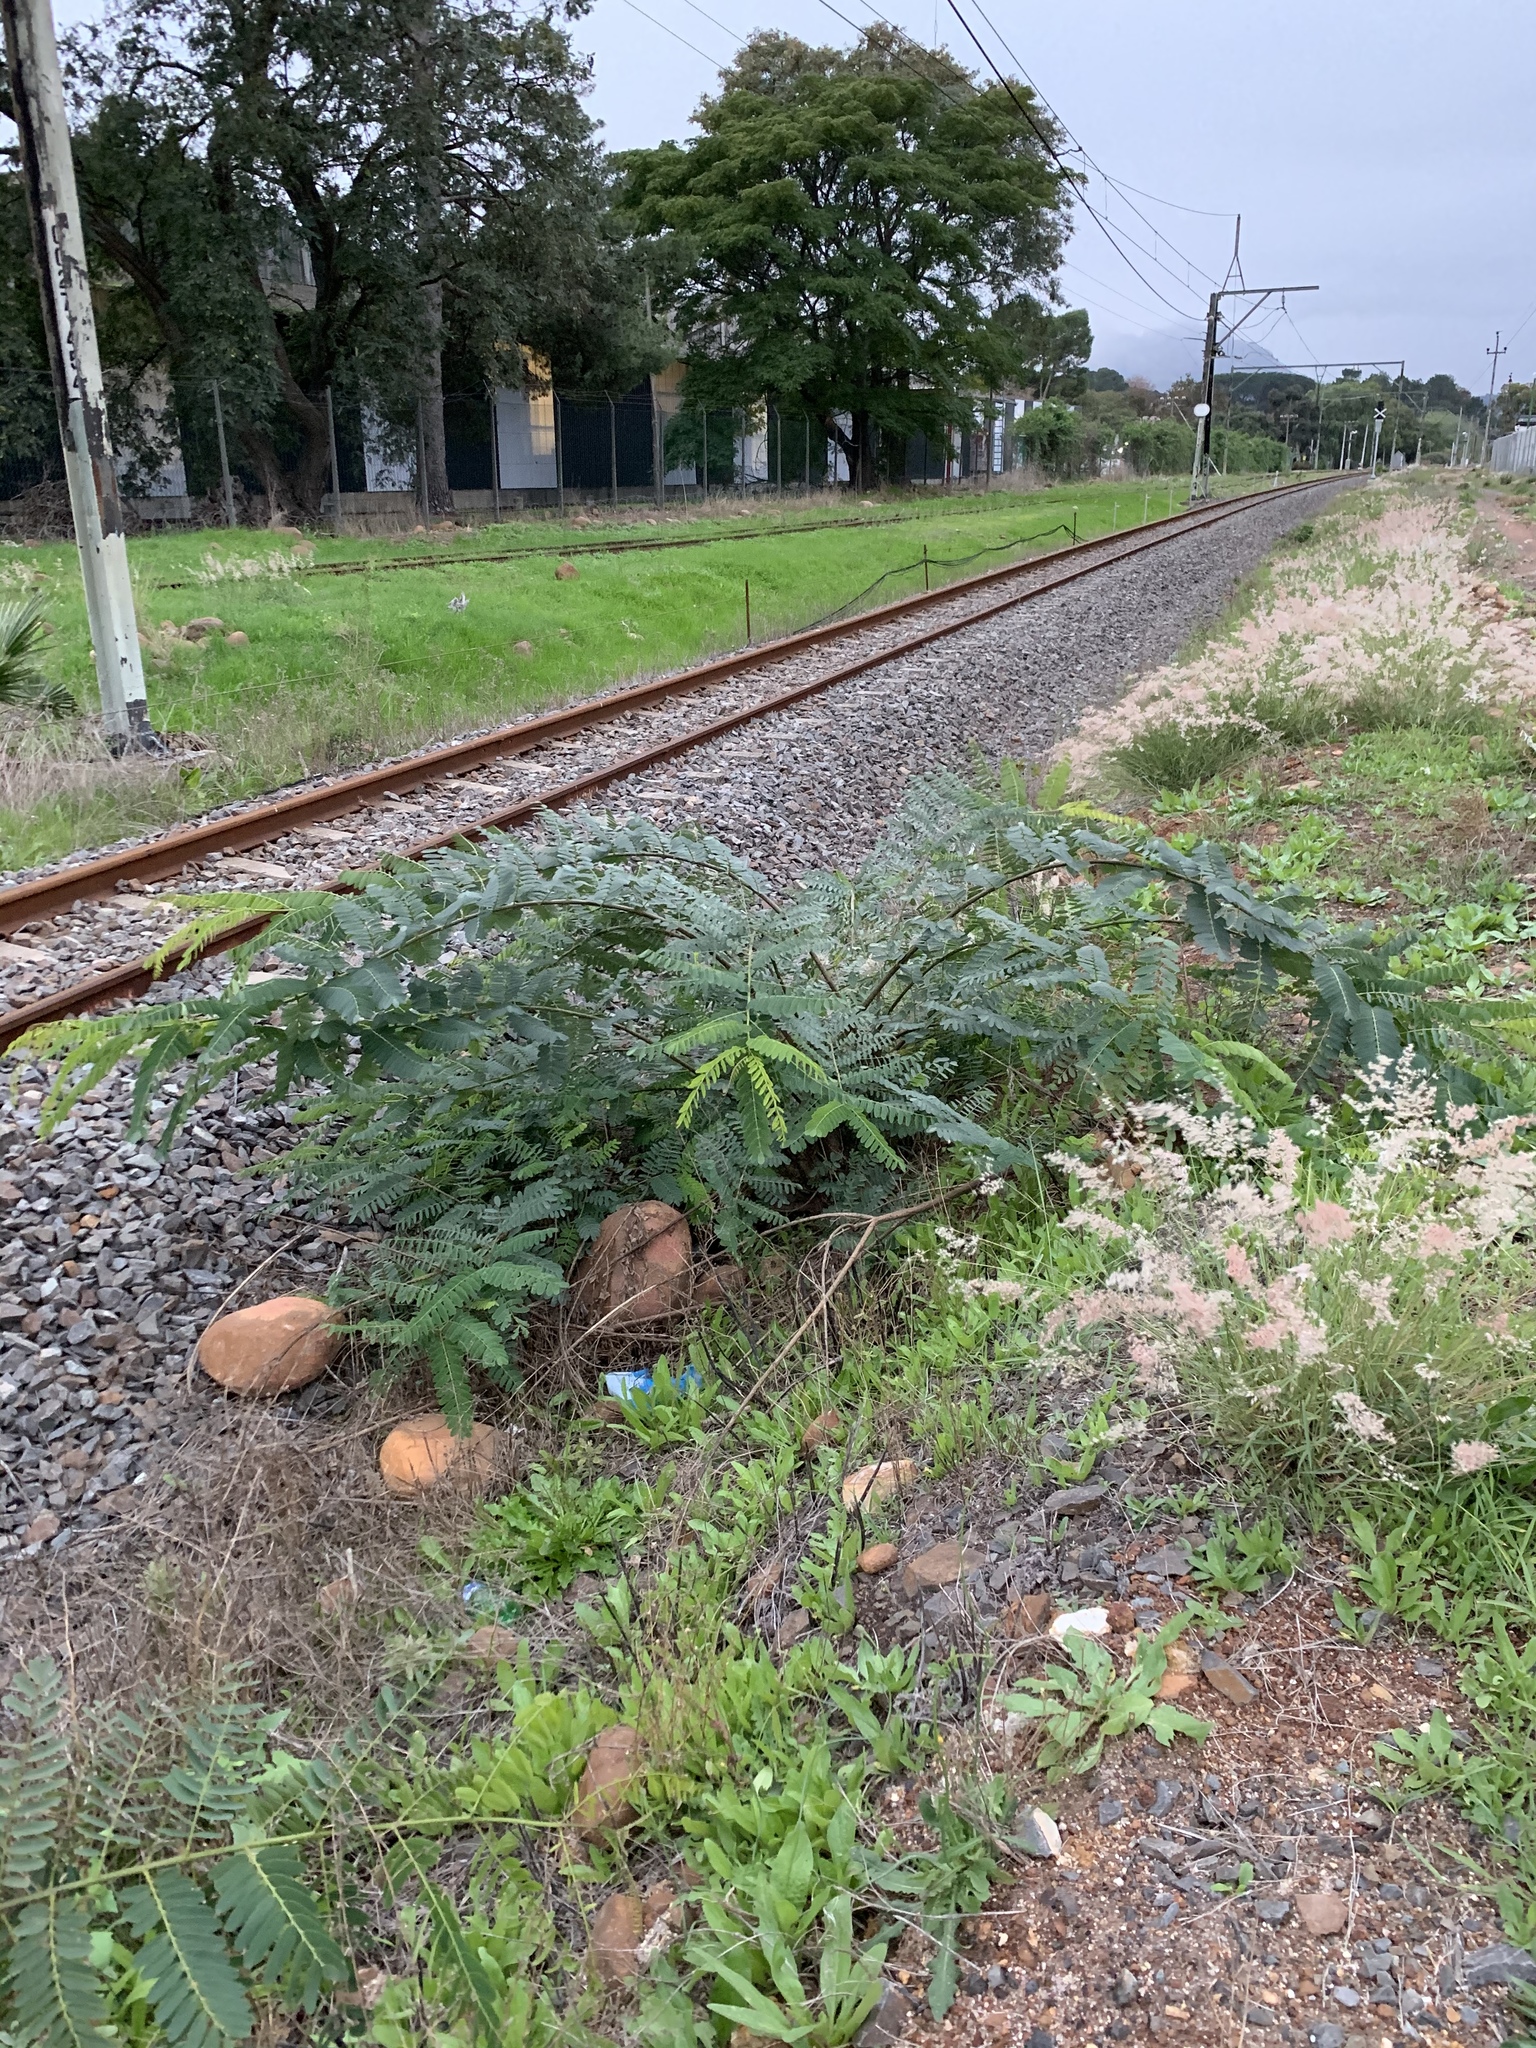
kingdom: Plantae
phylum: Tracheophyta
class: Magnoliopsida
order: Fabales
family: Fabaceae
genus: Tipuana
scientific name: Tipuana tipu
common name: Tiputree
